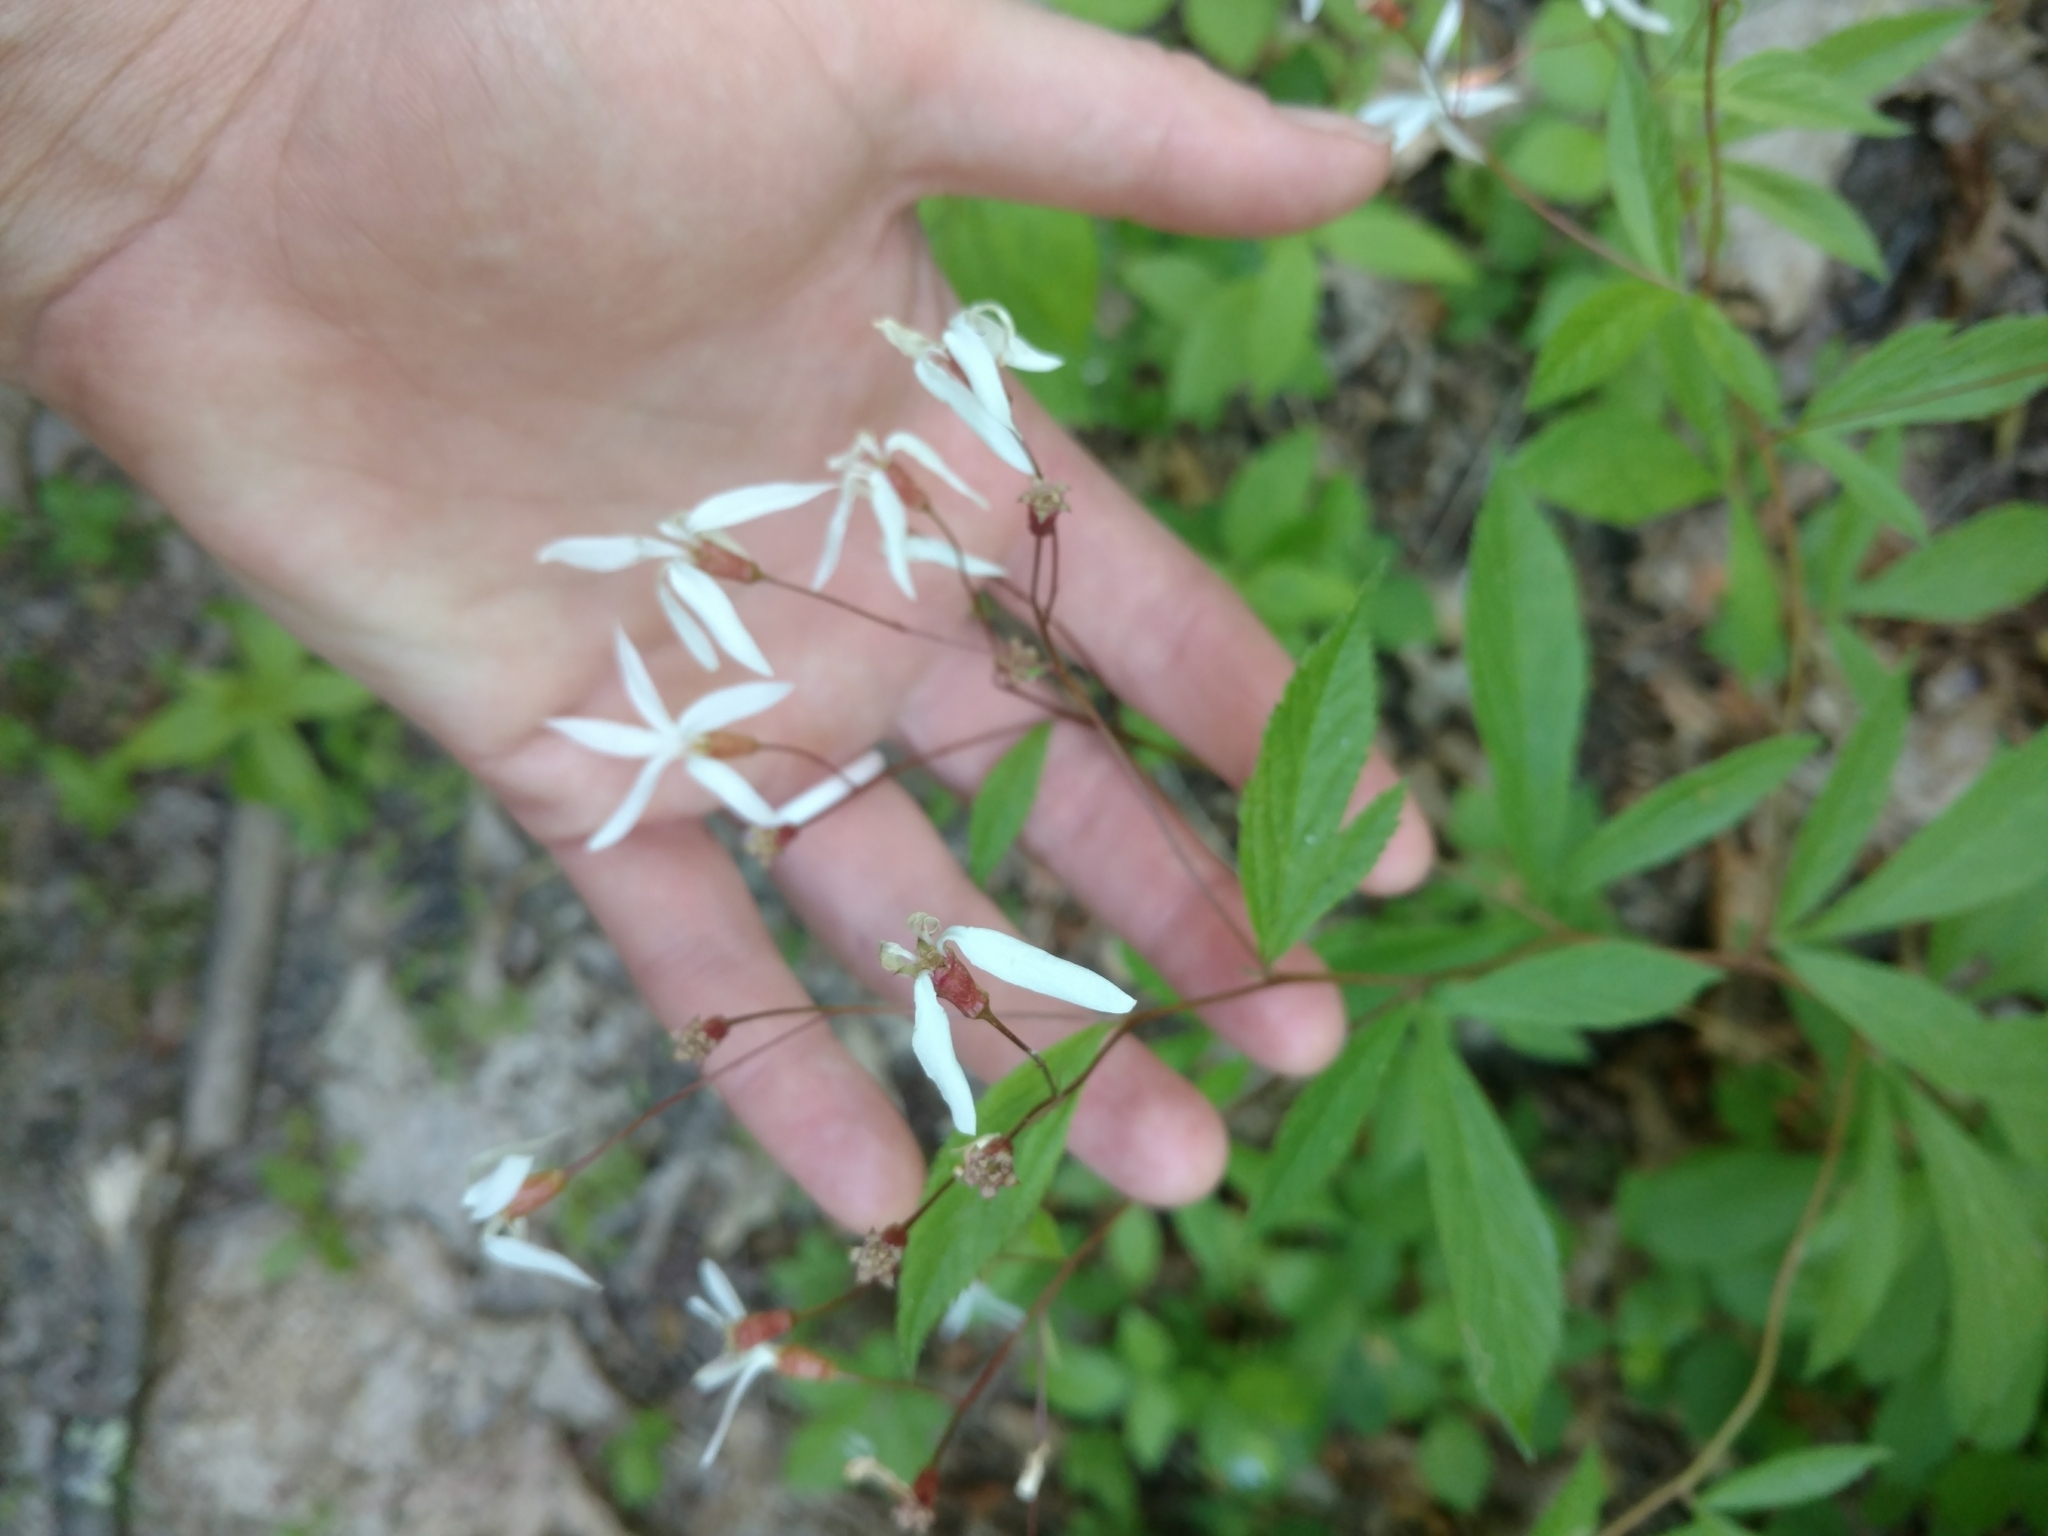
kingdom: Plantae
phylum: Tracheophyta
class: Magnoliopsida
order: Rosales
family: Rosaceae
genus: Gillenia
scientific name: Gillenia trifoliata
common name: Bowman's-root
